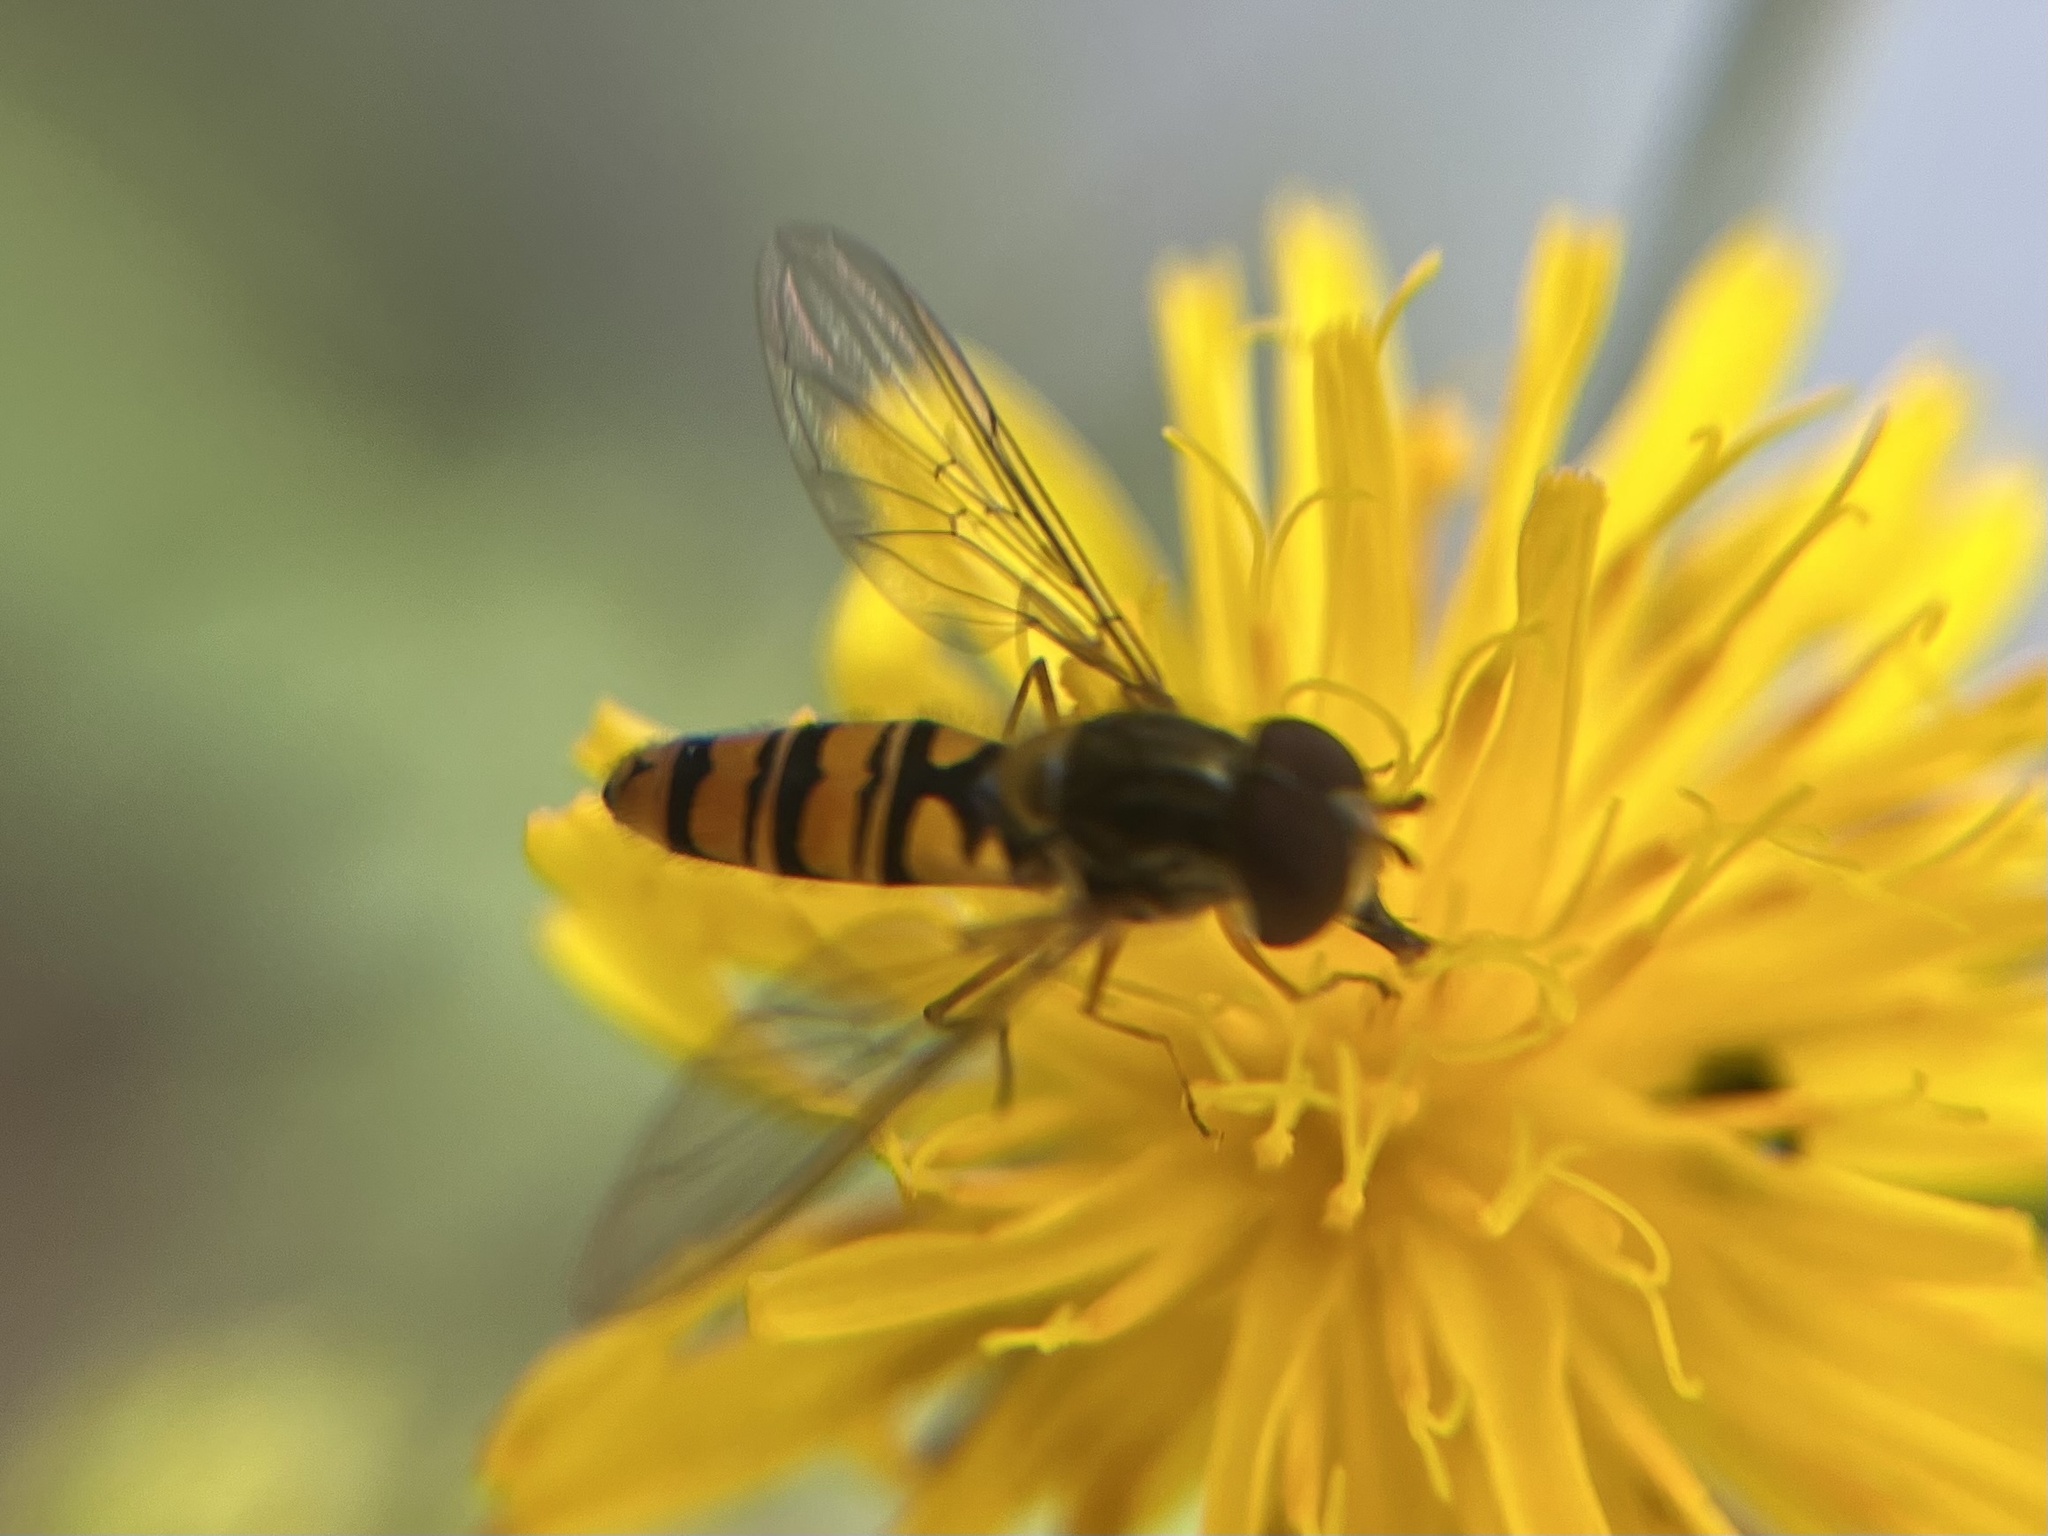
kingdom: Animalia
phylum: Arthropoda
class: Insecta
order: Diptera
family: Syrphidae
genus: Episyrphus
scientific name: Episyrphus balteatus
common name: Marmalade hoverfly
